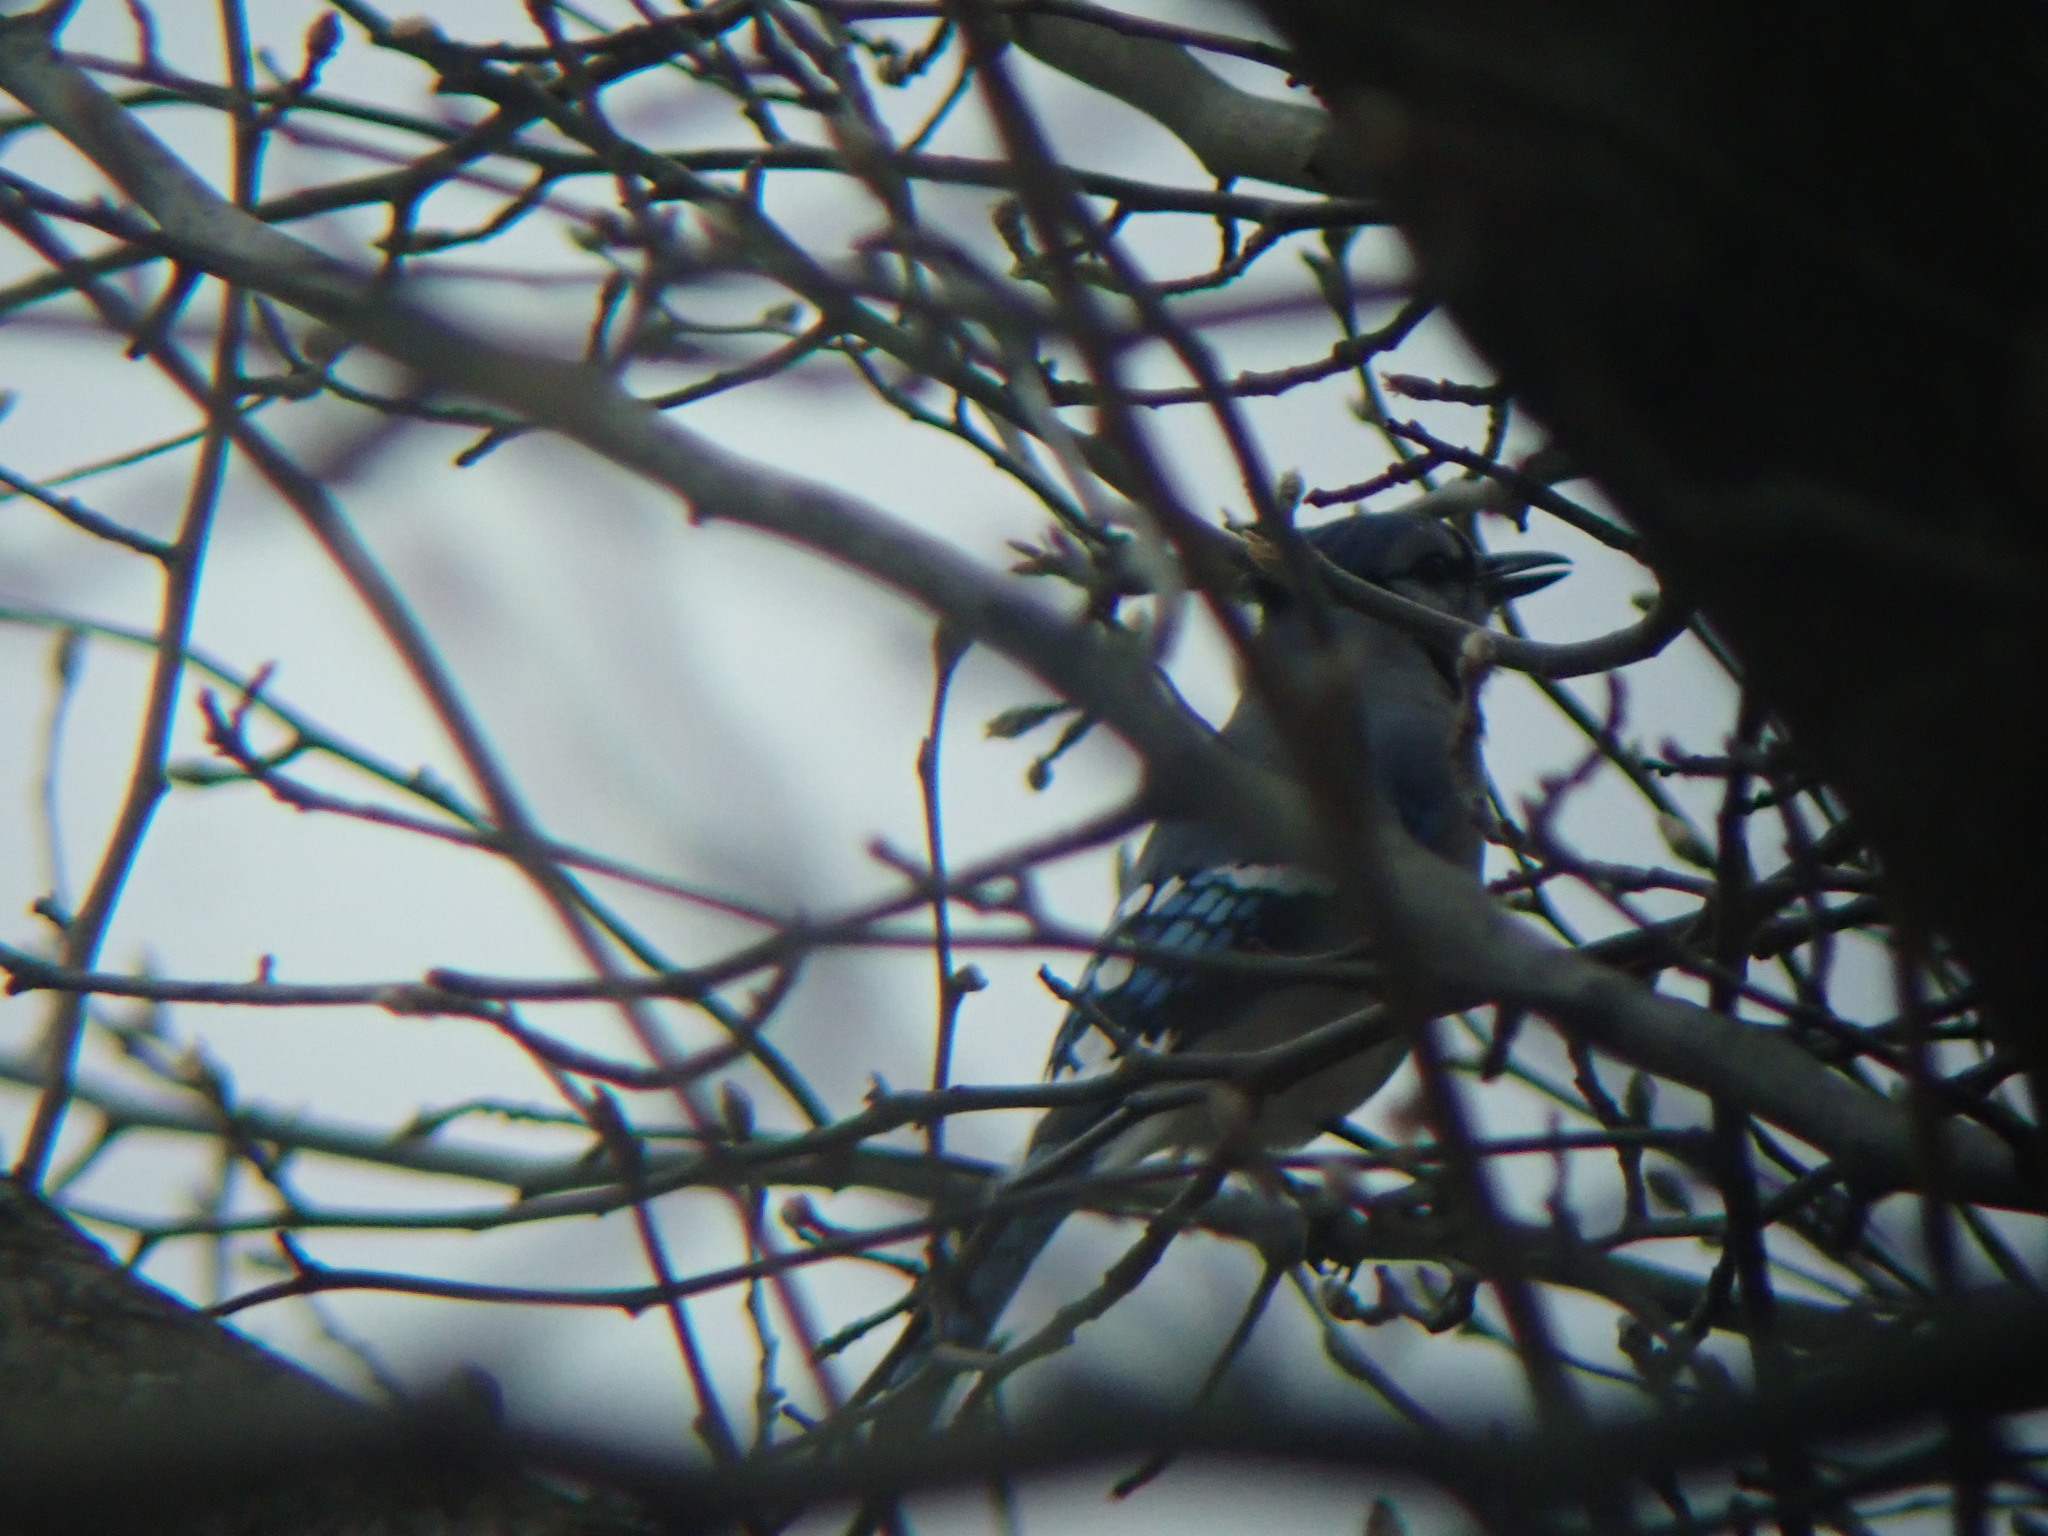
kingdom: Animalia
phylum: Chordata
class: Aves
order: Passeriformes
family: Corvidae
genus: Cyanocitta
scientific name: Cyanocitta cristata
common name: Blue jay
